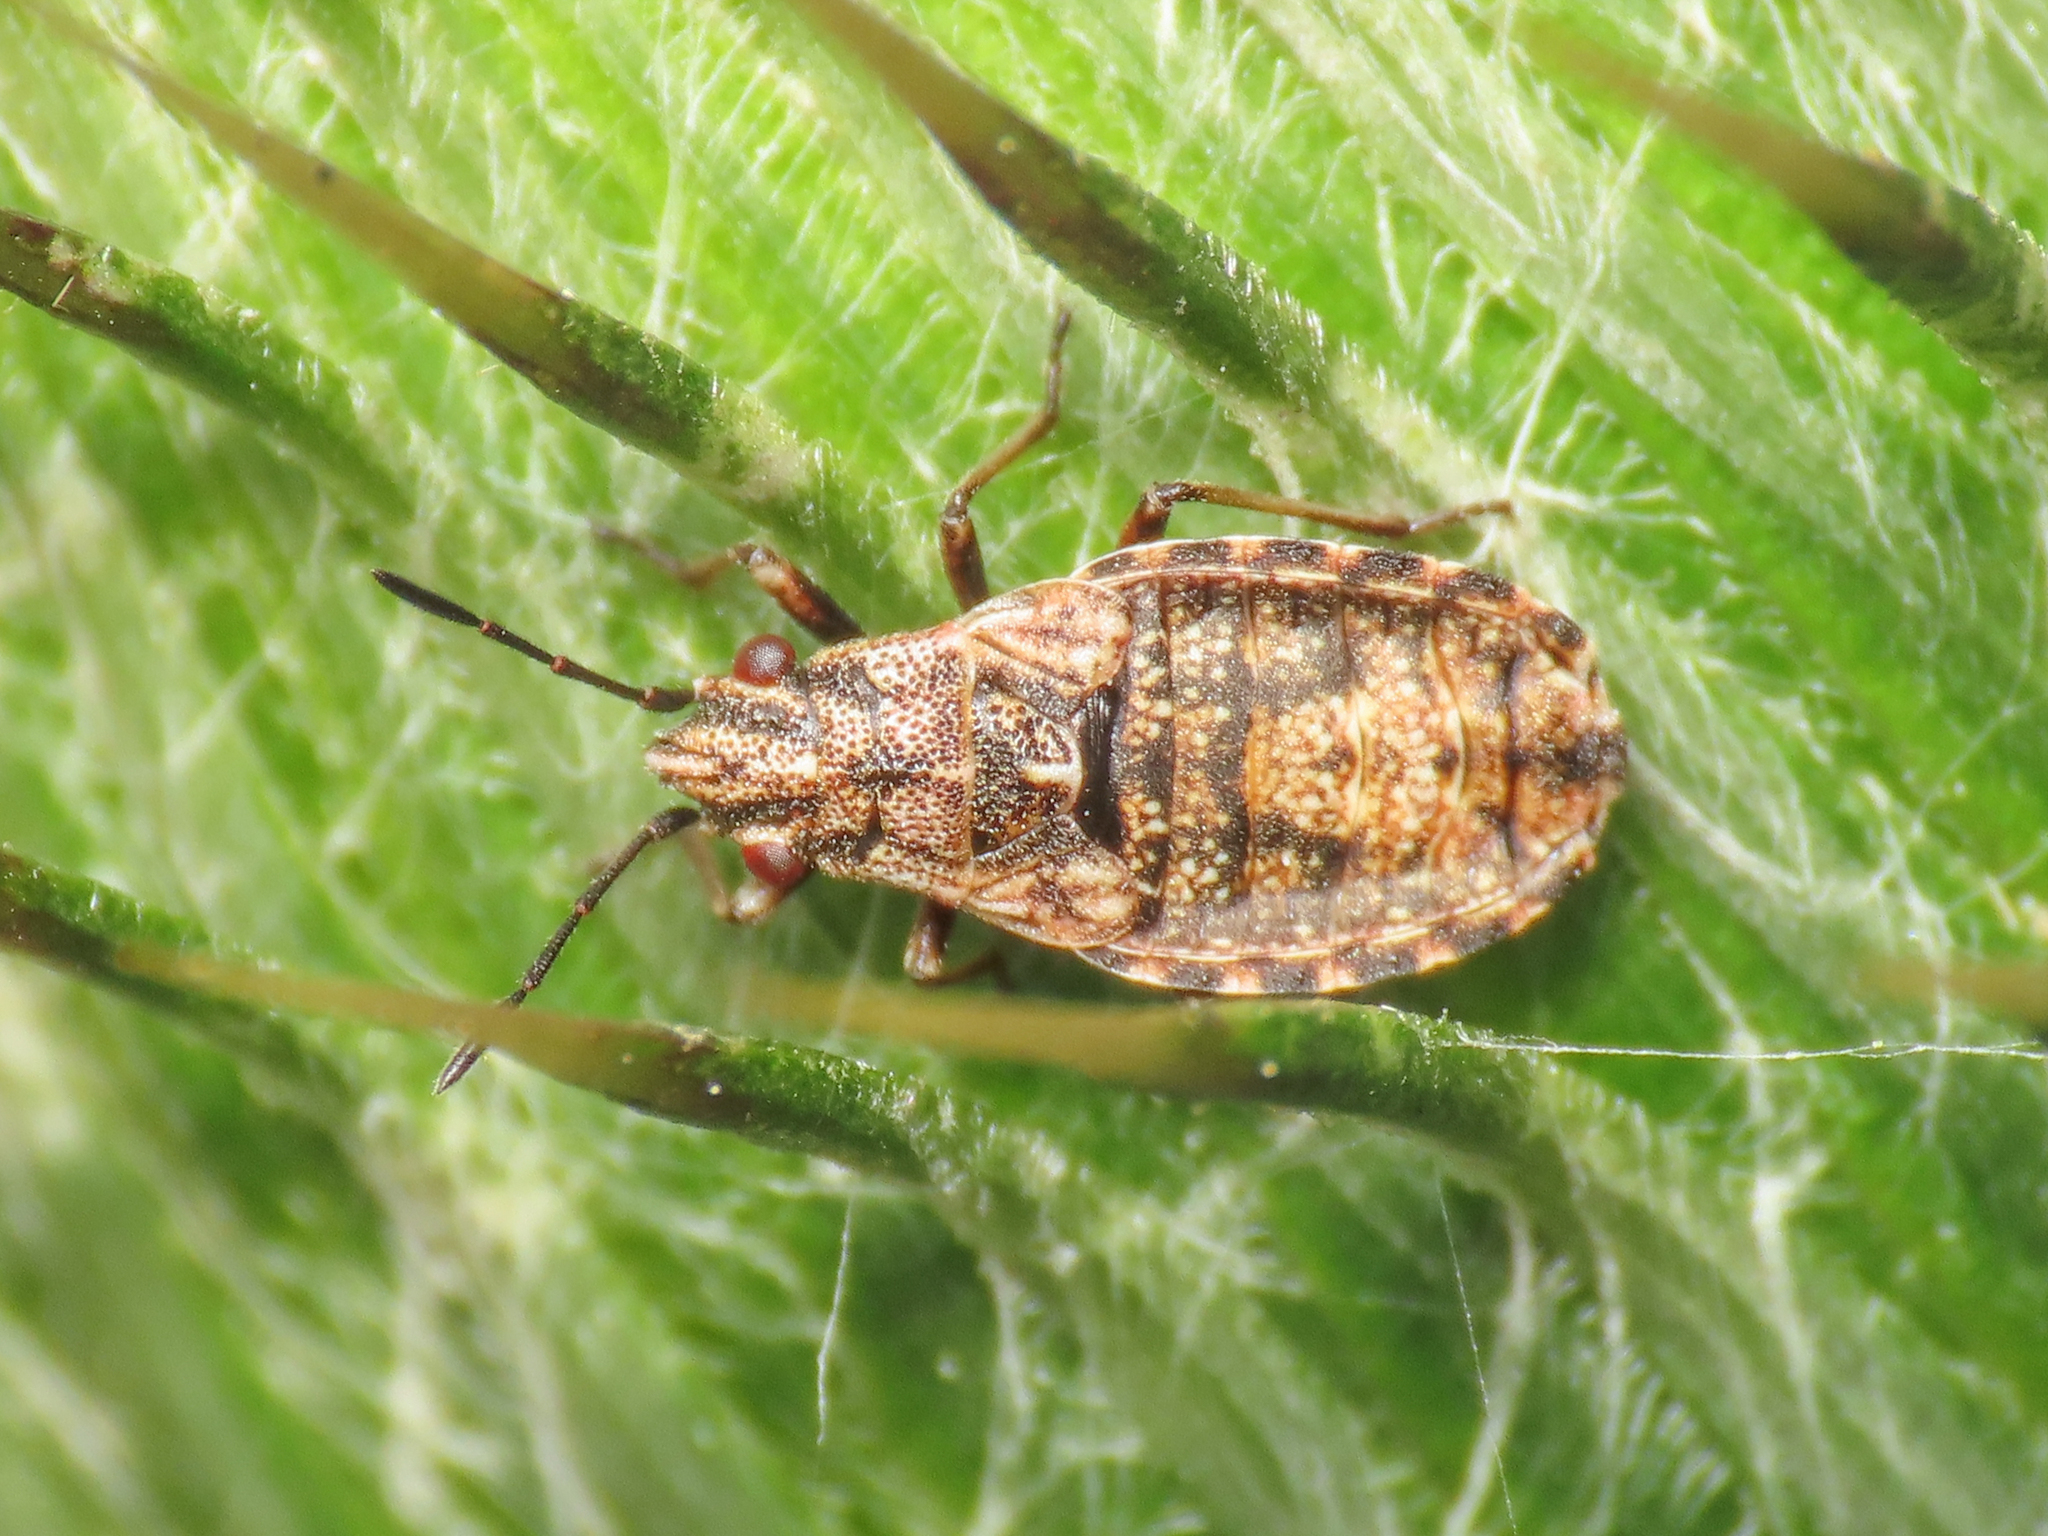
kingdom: Animalia
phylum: Arthropoda
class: Insecta
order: Hemiptera
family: Lygaeidae
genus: Nithecus
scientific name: Nithecus jacobaeae
